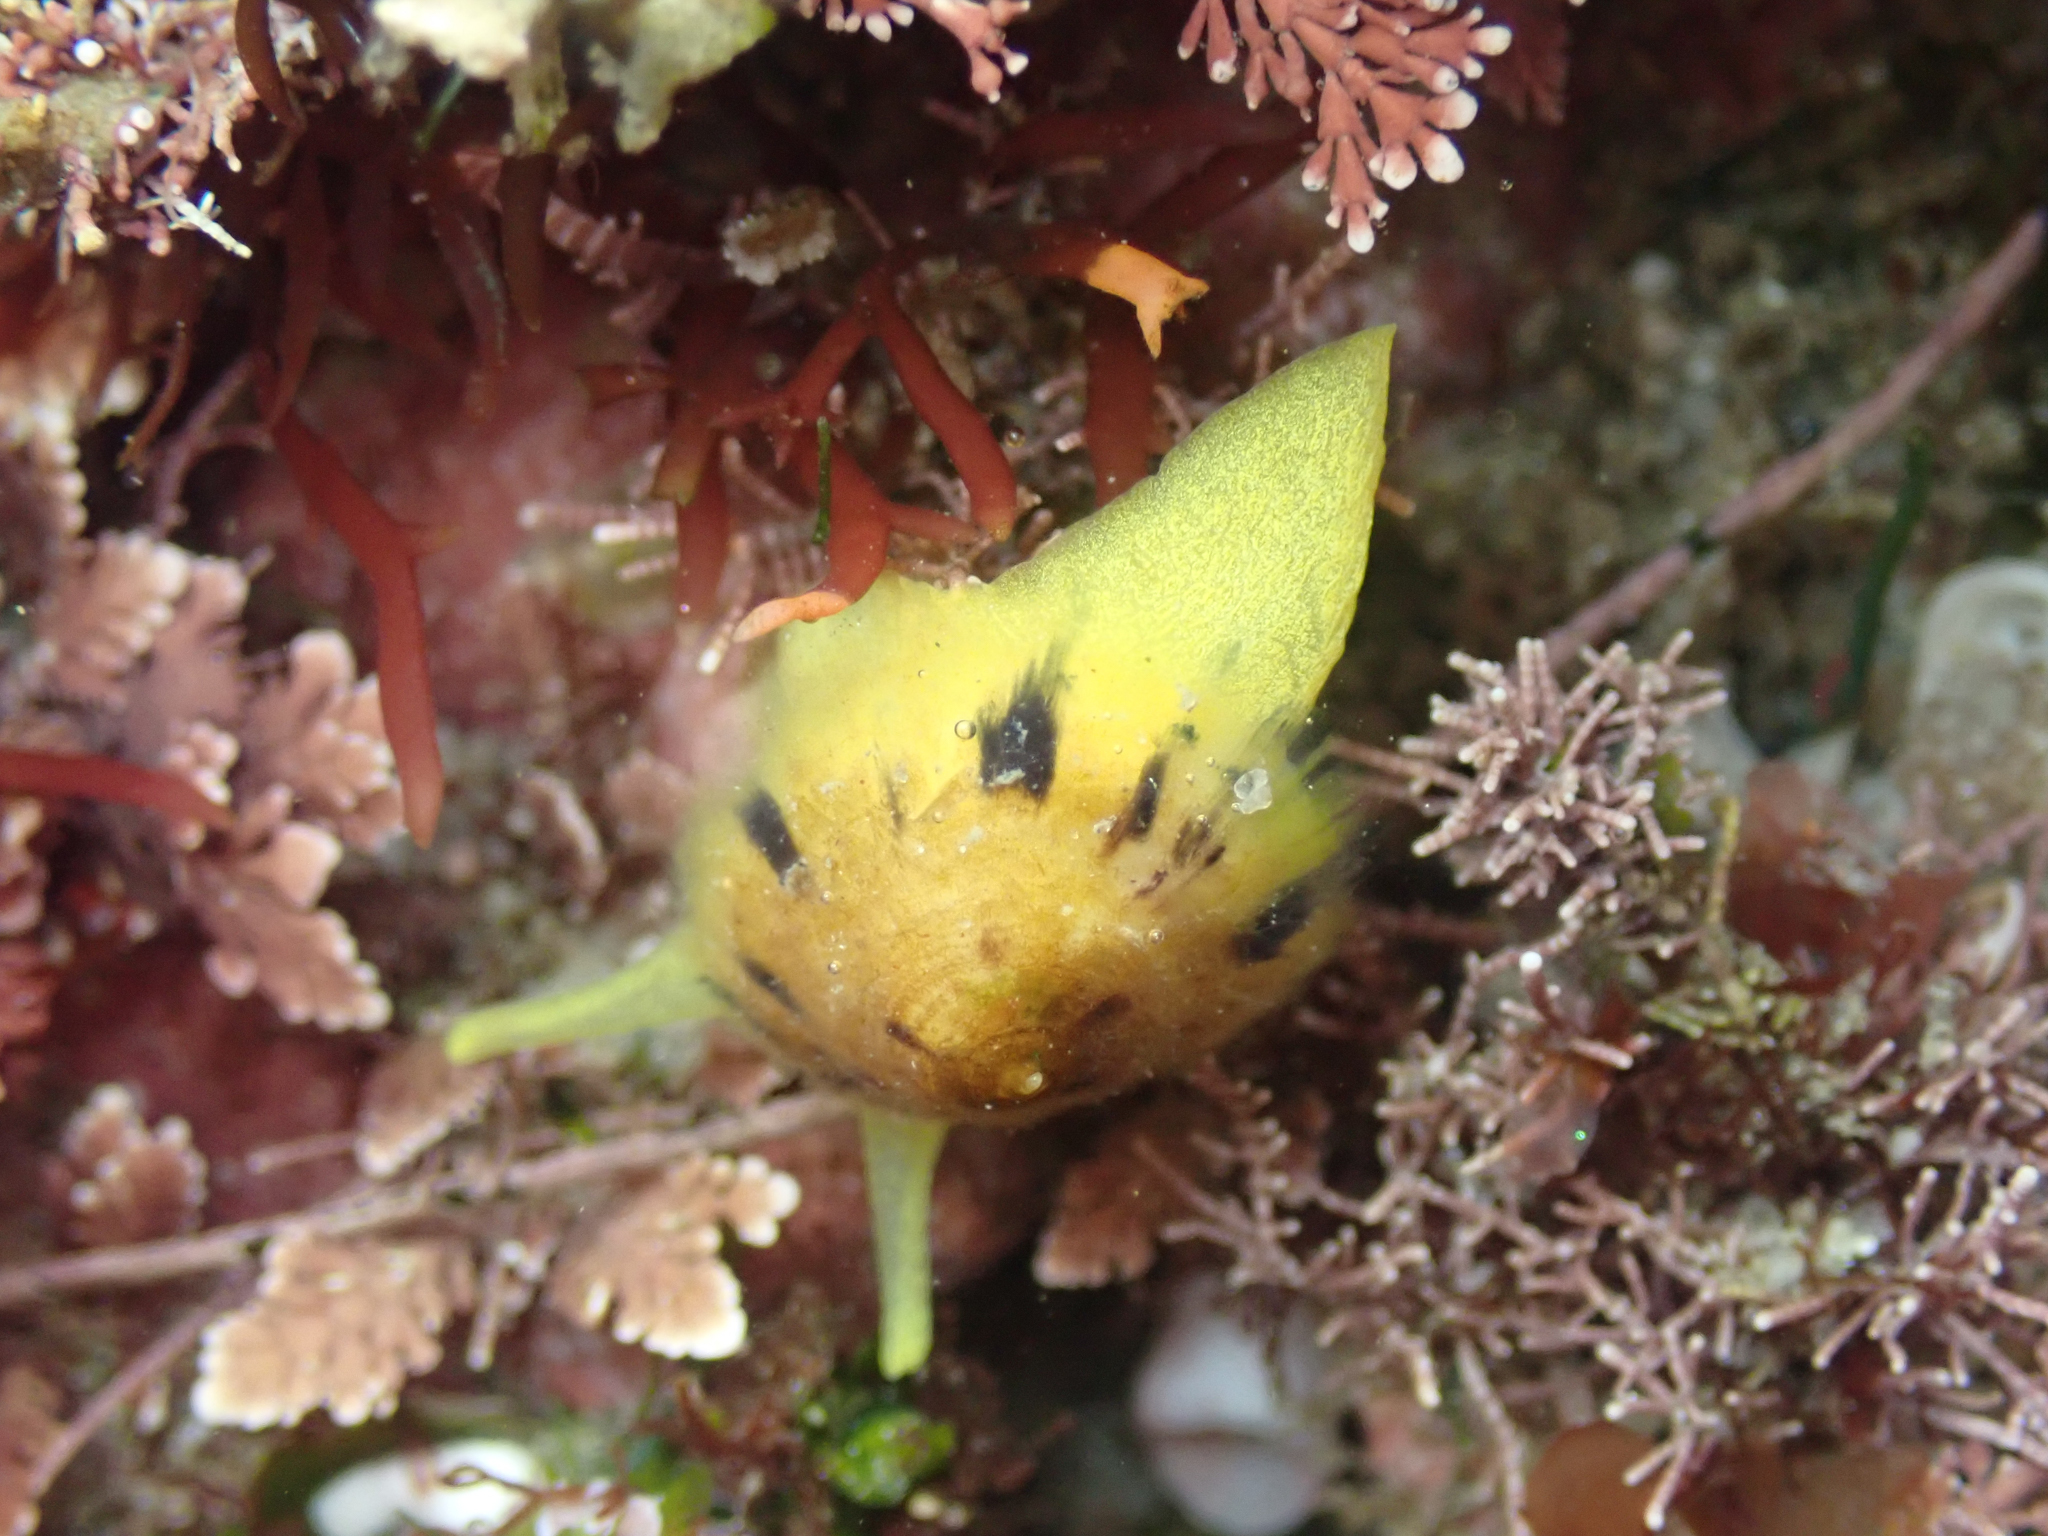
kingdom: Animalia
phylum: Mollusca
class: Gastropoda
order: Umbraculida
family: Tylodinidae
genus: Tylodina
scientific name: Tylodina fungina
